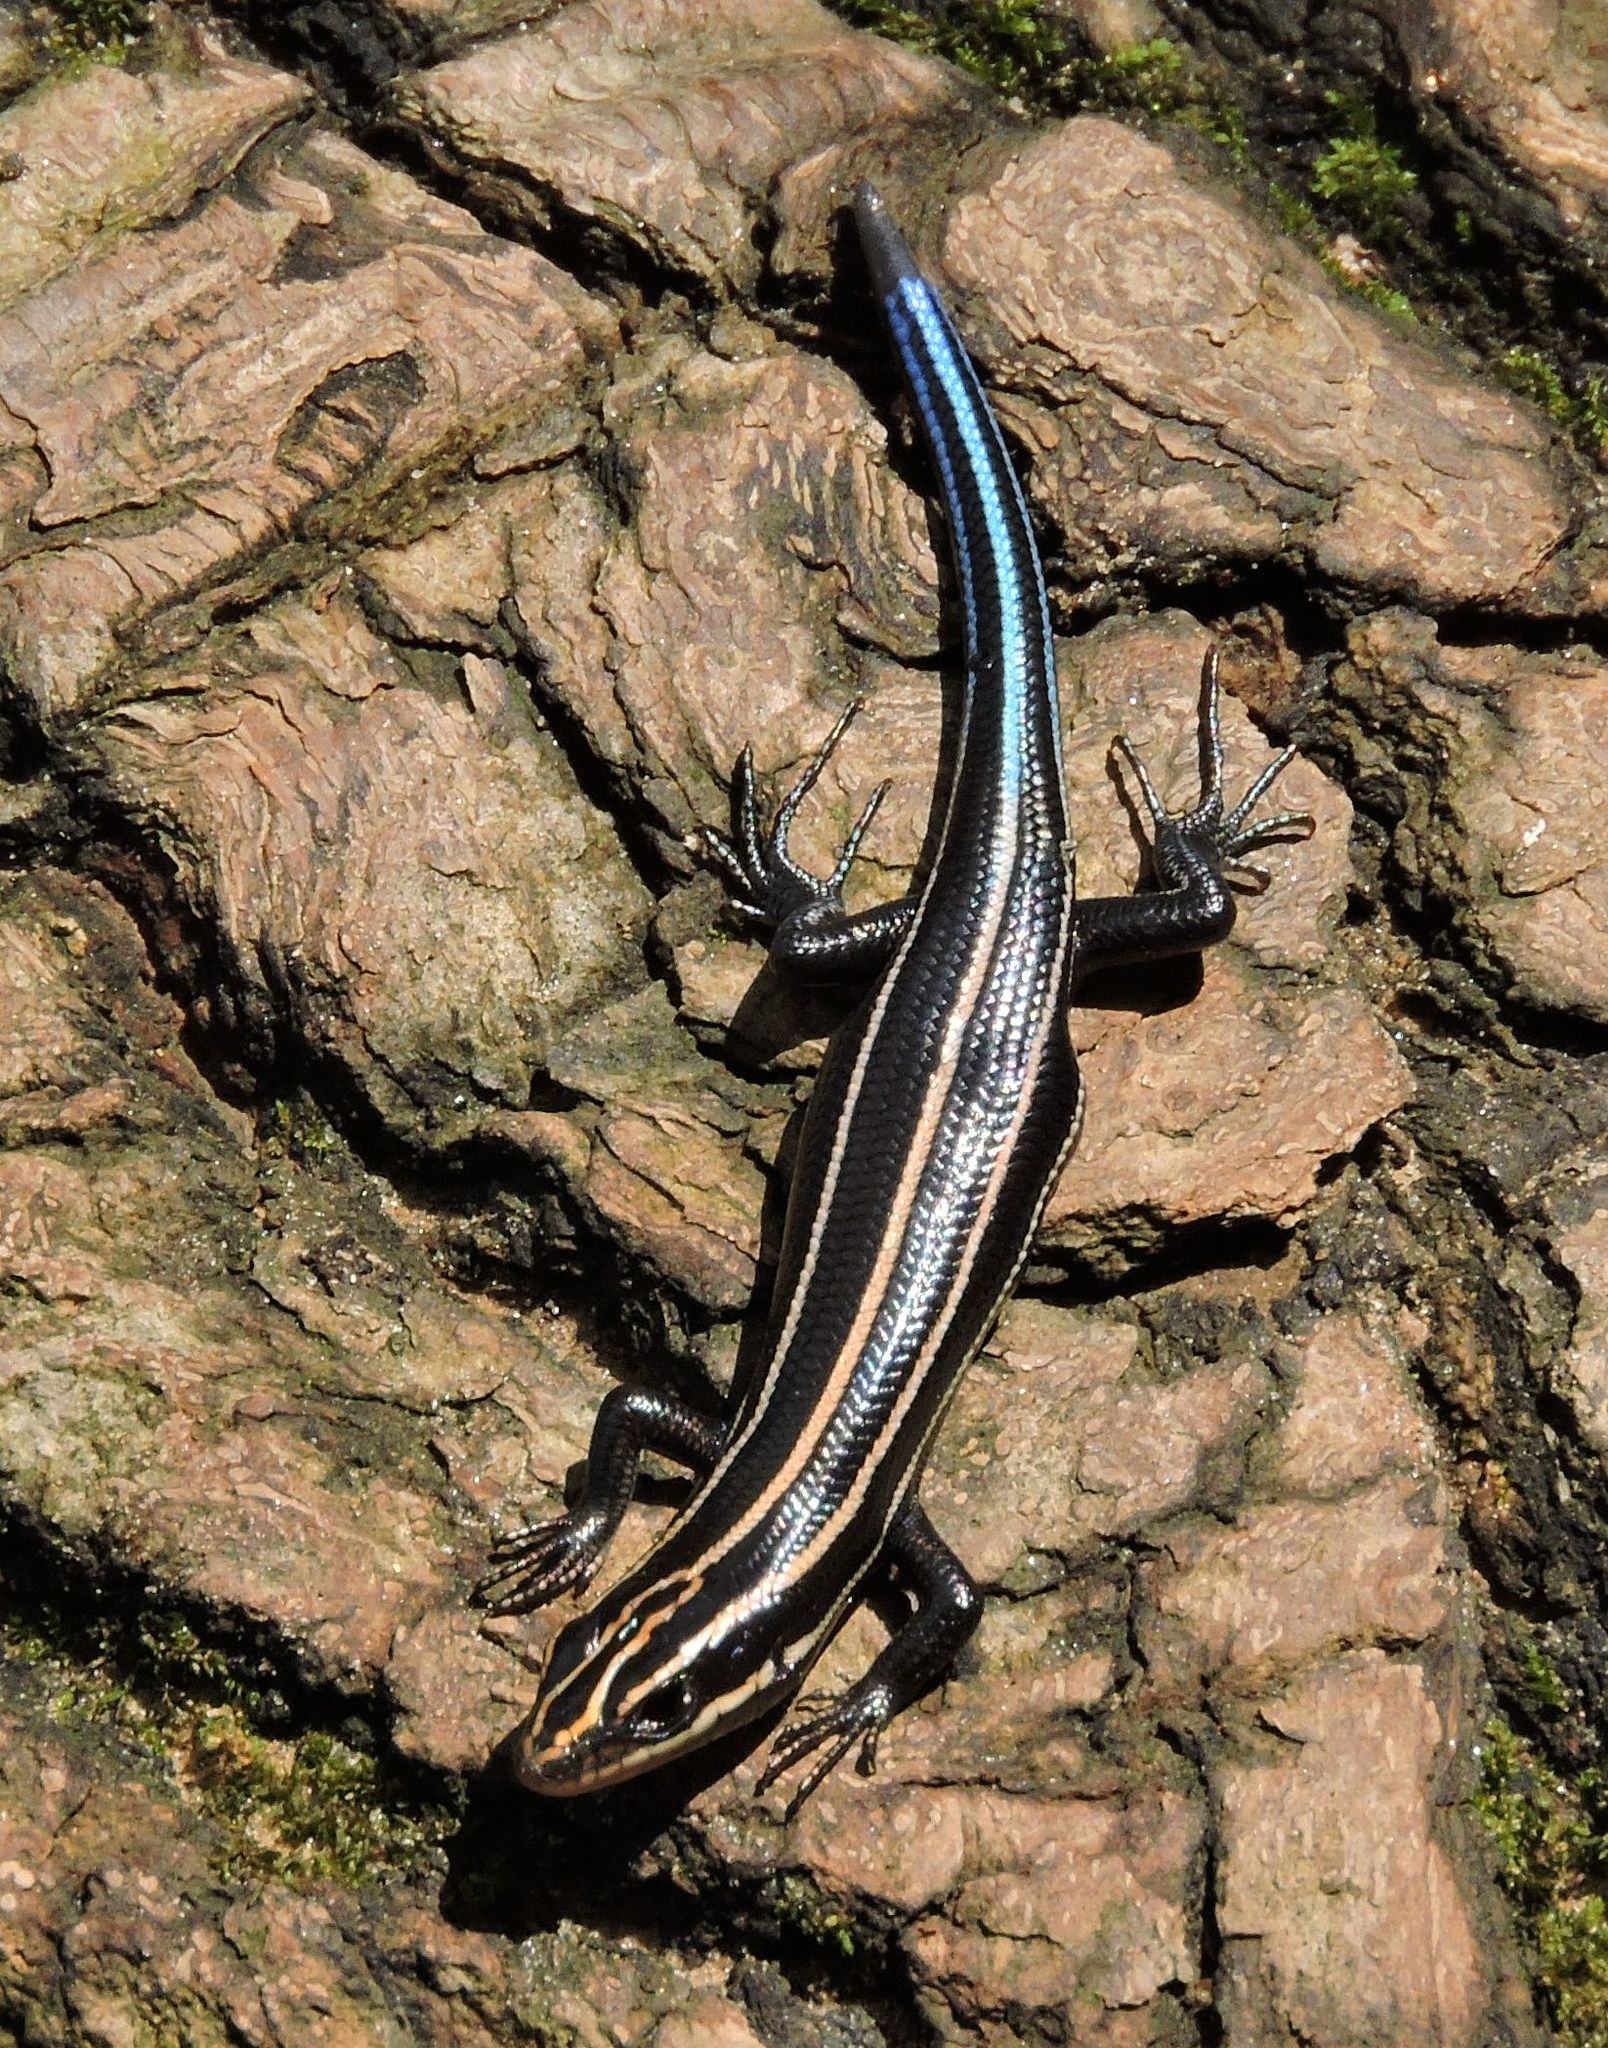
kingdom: Animalia
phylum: Chordata
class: Squamata
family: Scincidae
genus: Plestiodon
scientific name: Plestiodon fasciatus
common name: Five-lined skink
